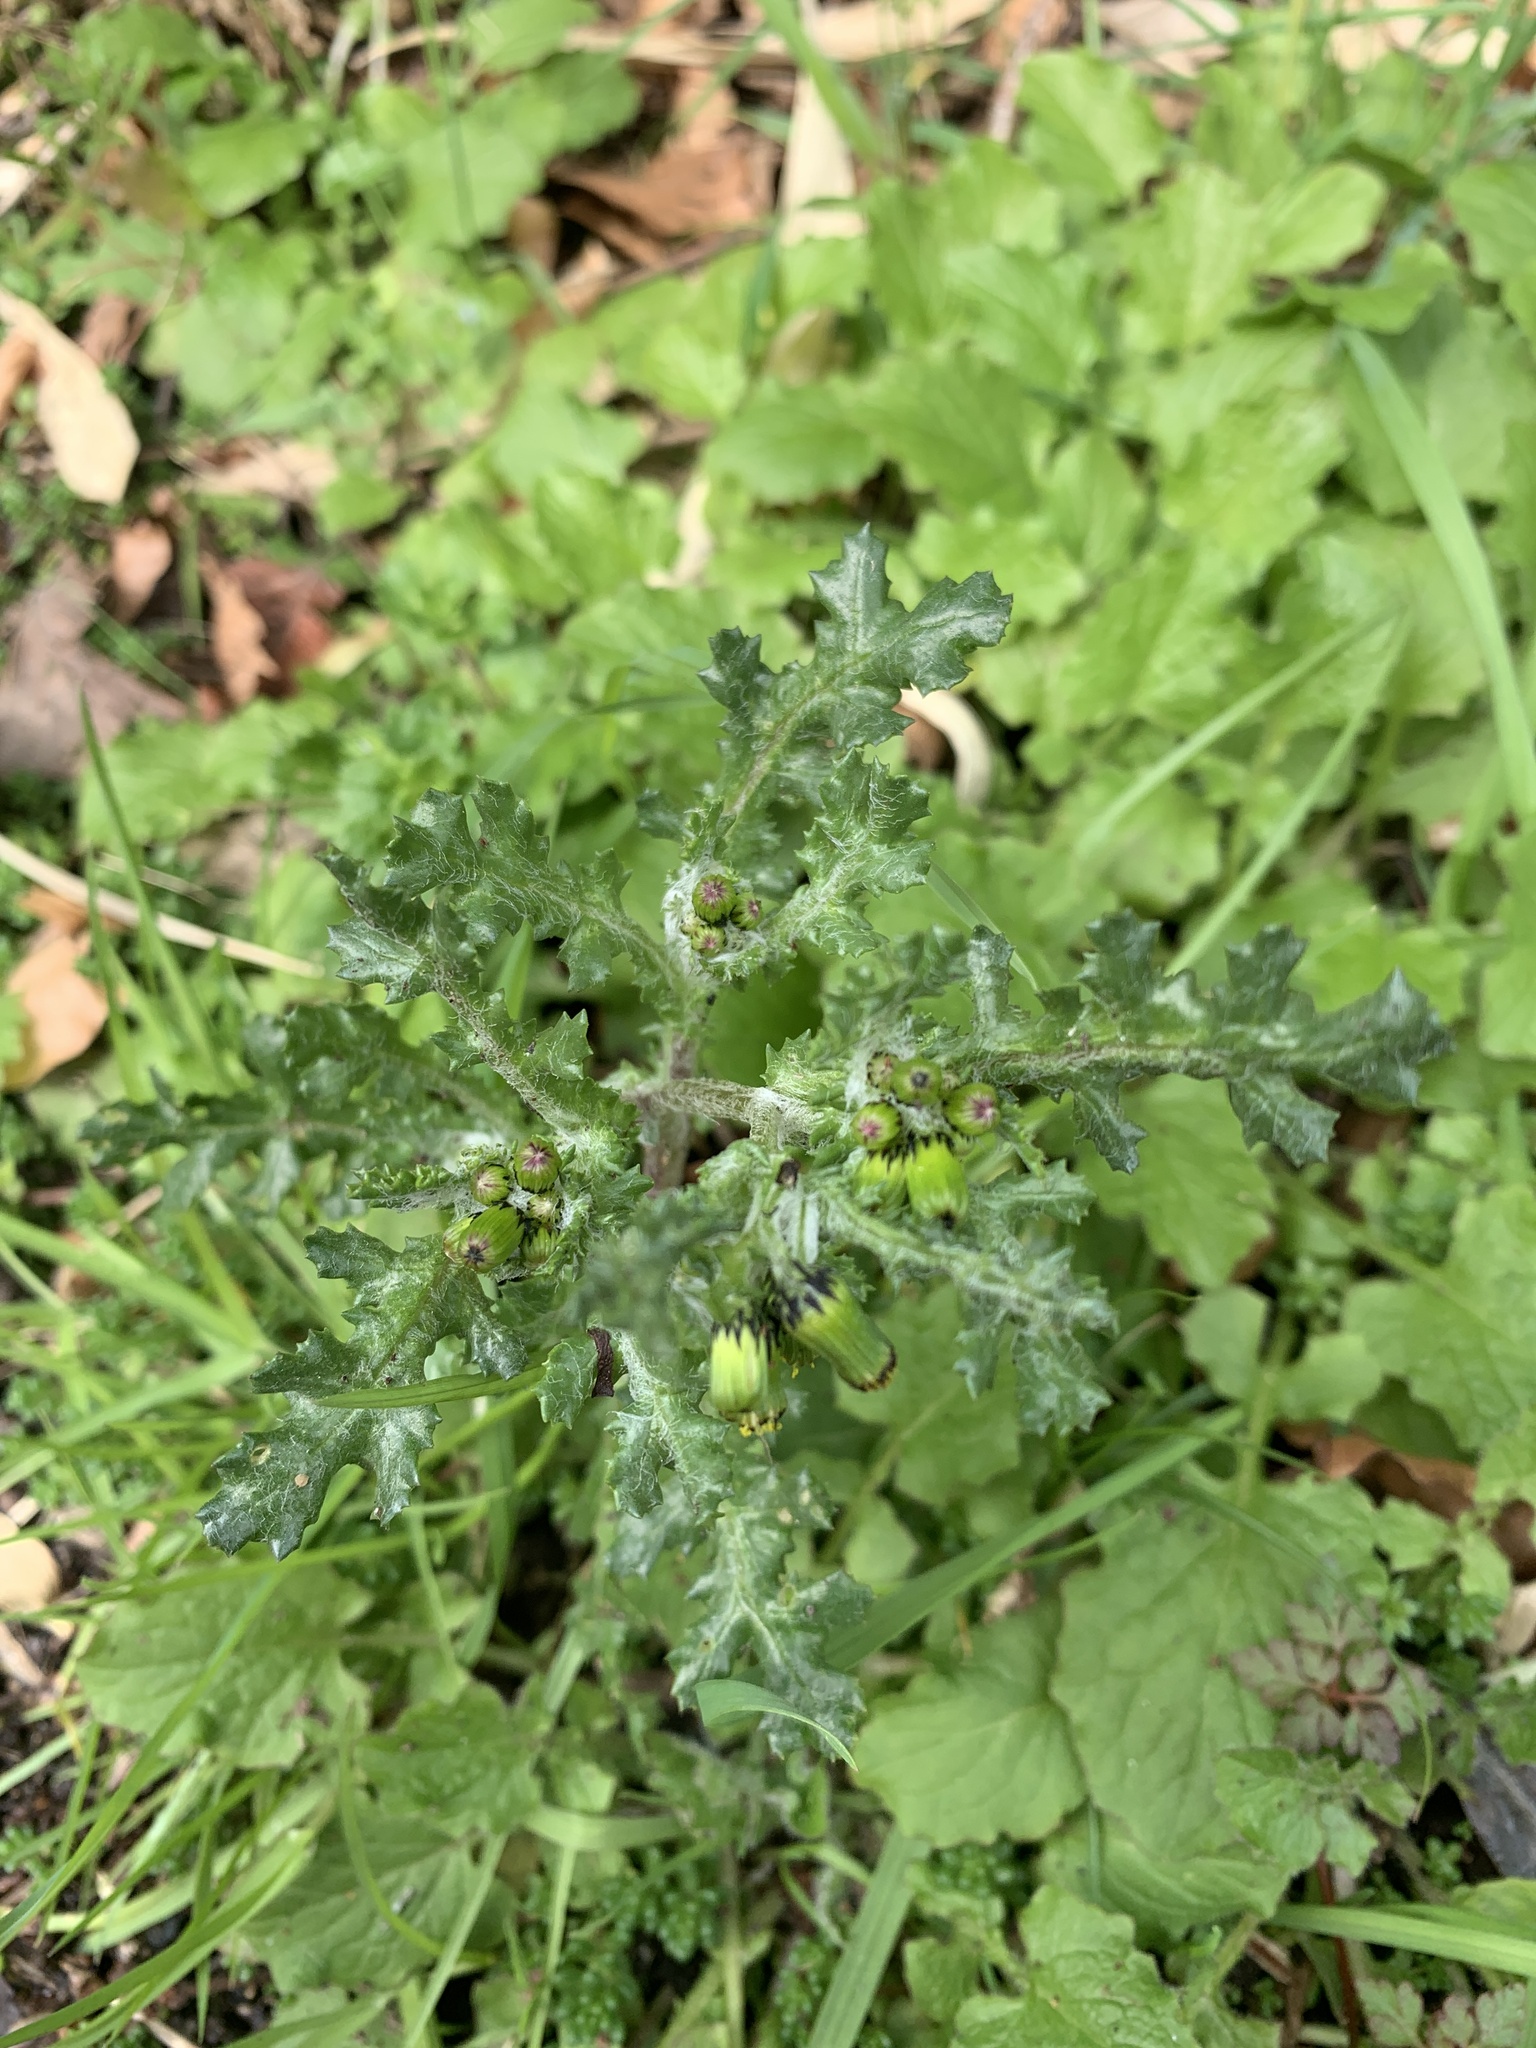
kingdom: Plantae
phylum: Tracheophyta
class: Magnoliopsida
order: Asterales
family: Asteraceae
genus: Senecio
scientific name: Senecio vulgaris
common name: Old-man-in-the-spring
